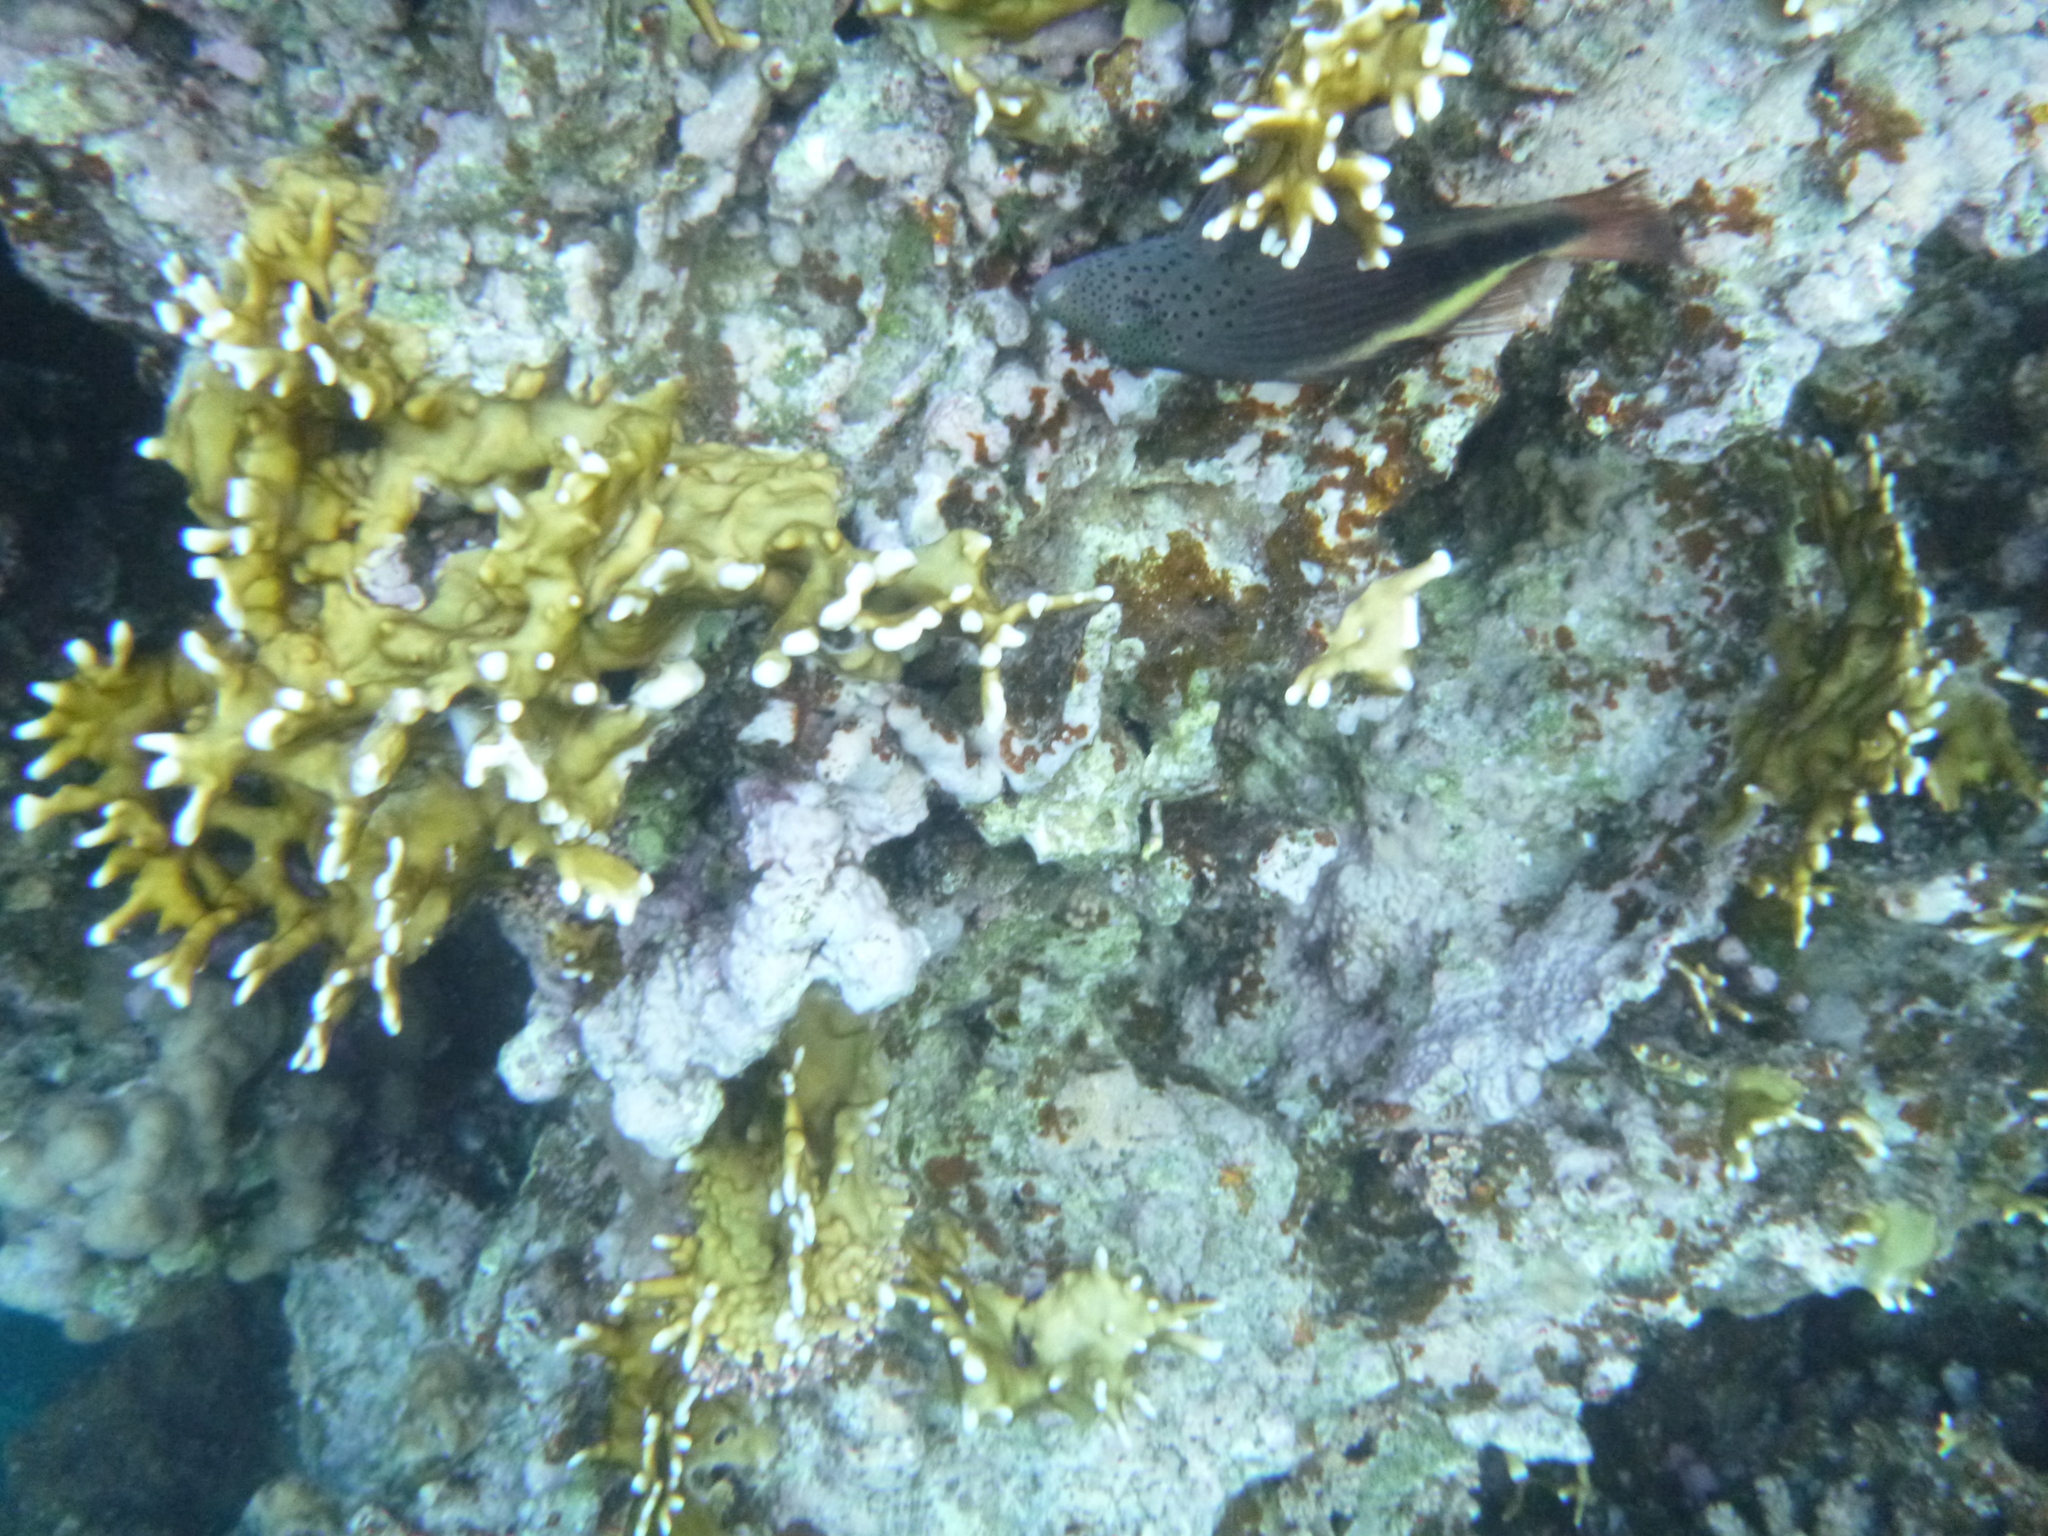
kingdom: Animalia
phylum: Chordata
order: Perciformes
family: Cirrhitidae
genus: Paracirrhites
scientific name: Paracirrhites forsteri
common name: Freckled hawkfish
